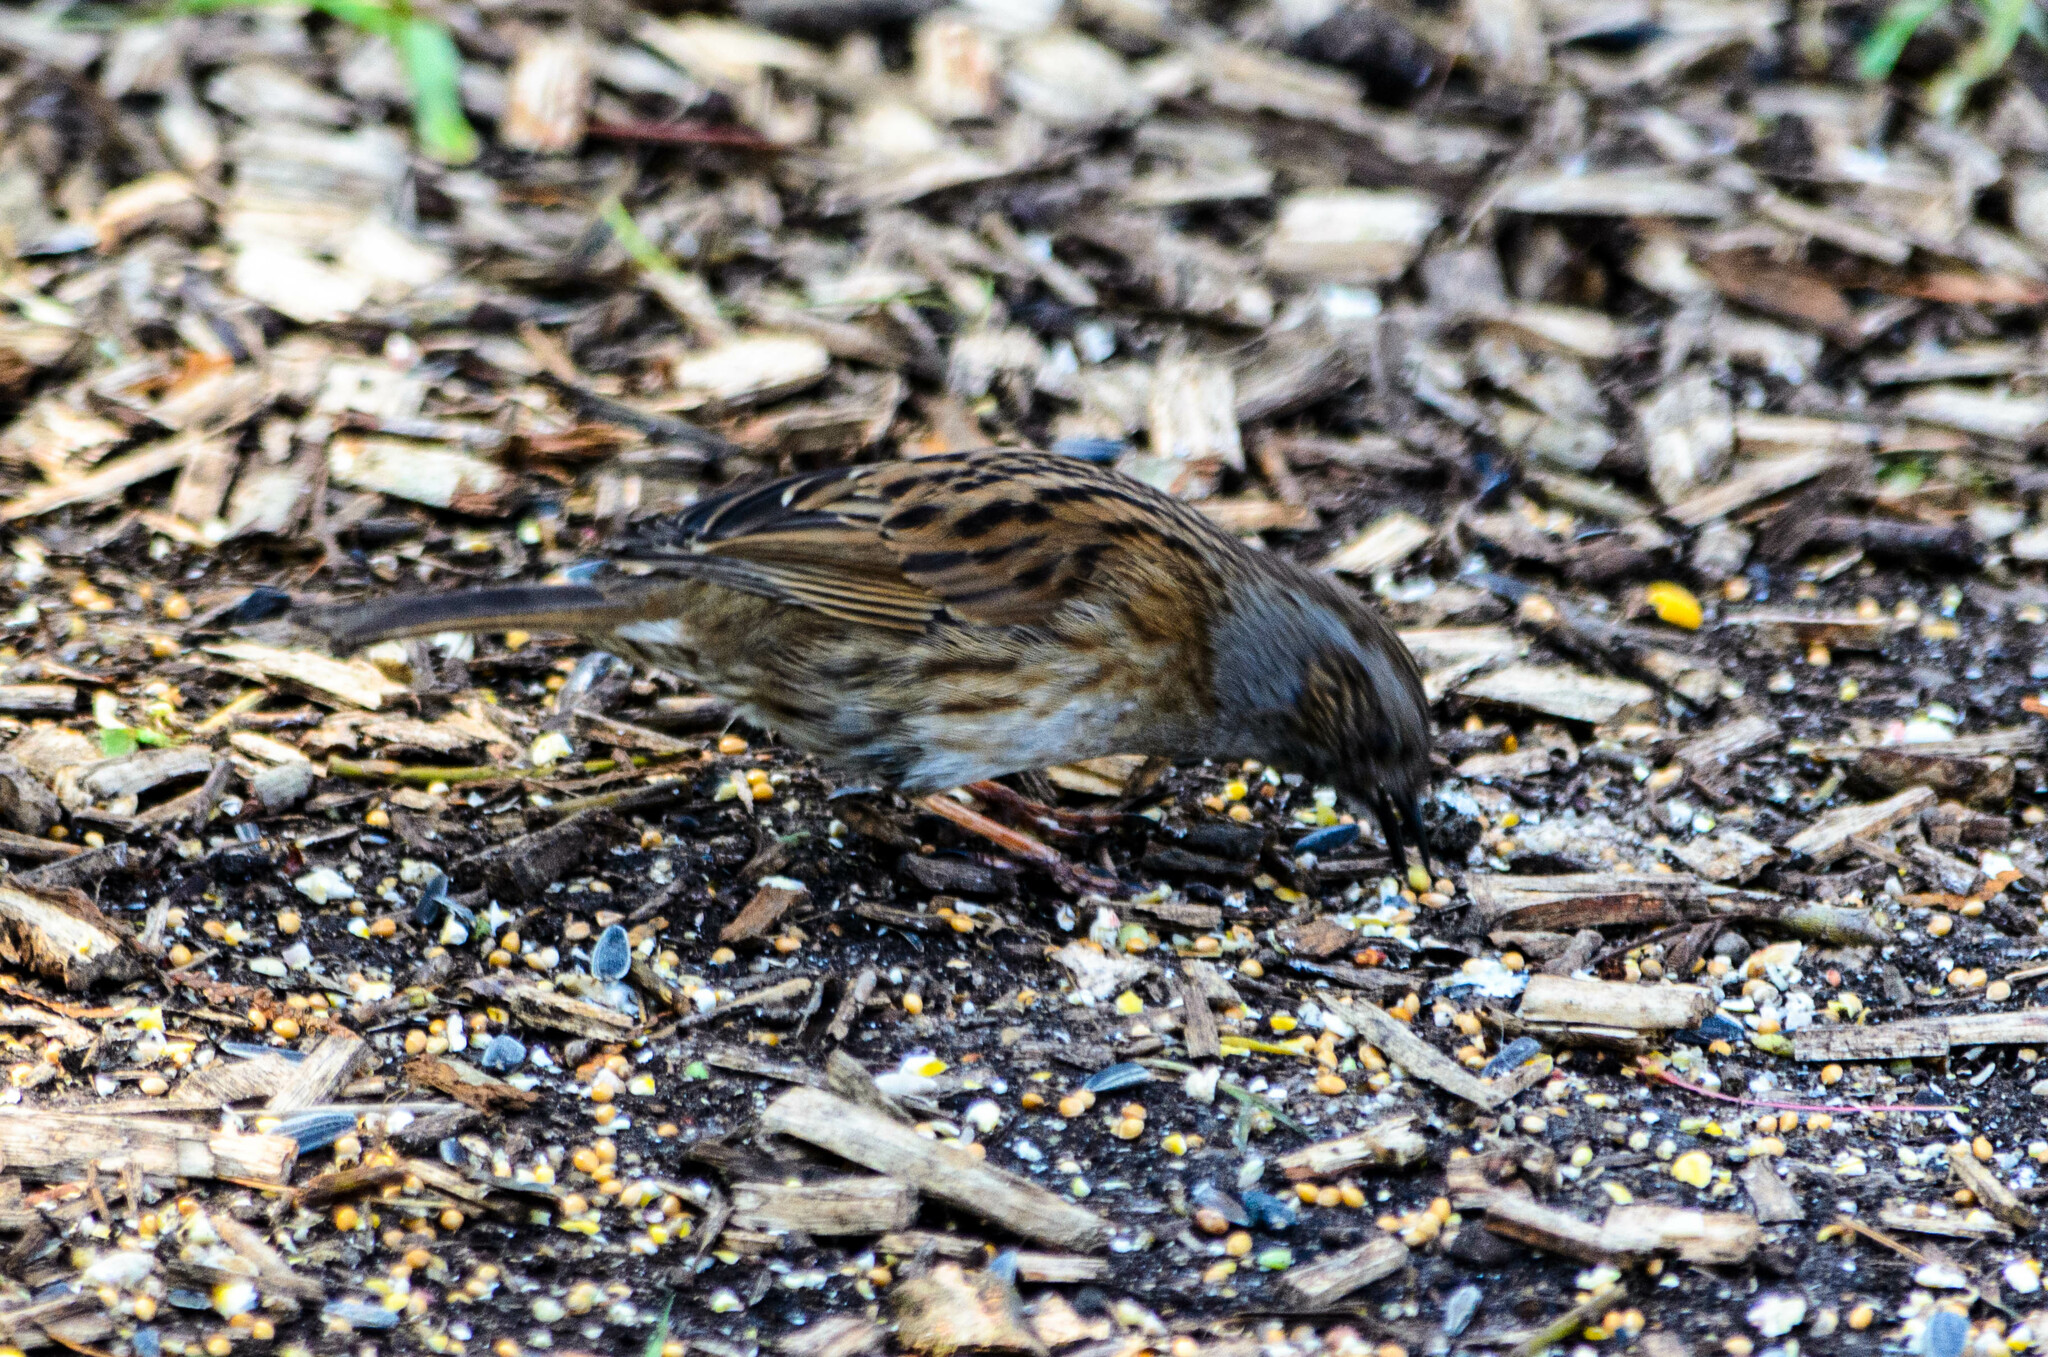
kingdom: Animalia
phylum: Chordata
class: Aves
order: Passeriformes
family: Prunellidae
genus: Prunella
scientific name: Prunella modularis
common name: Dunnock
